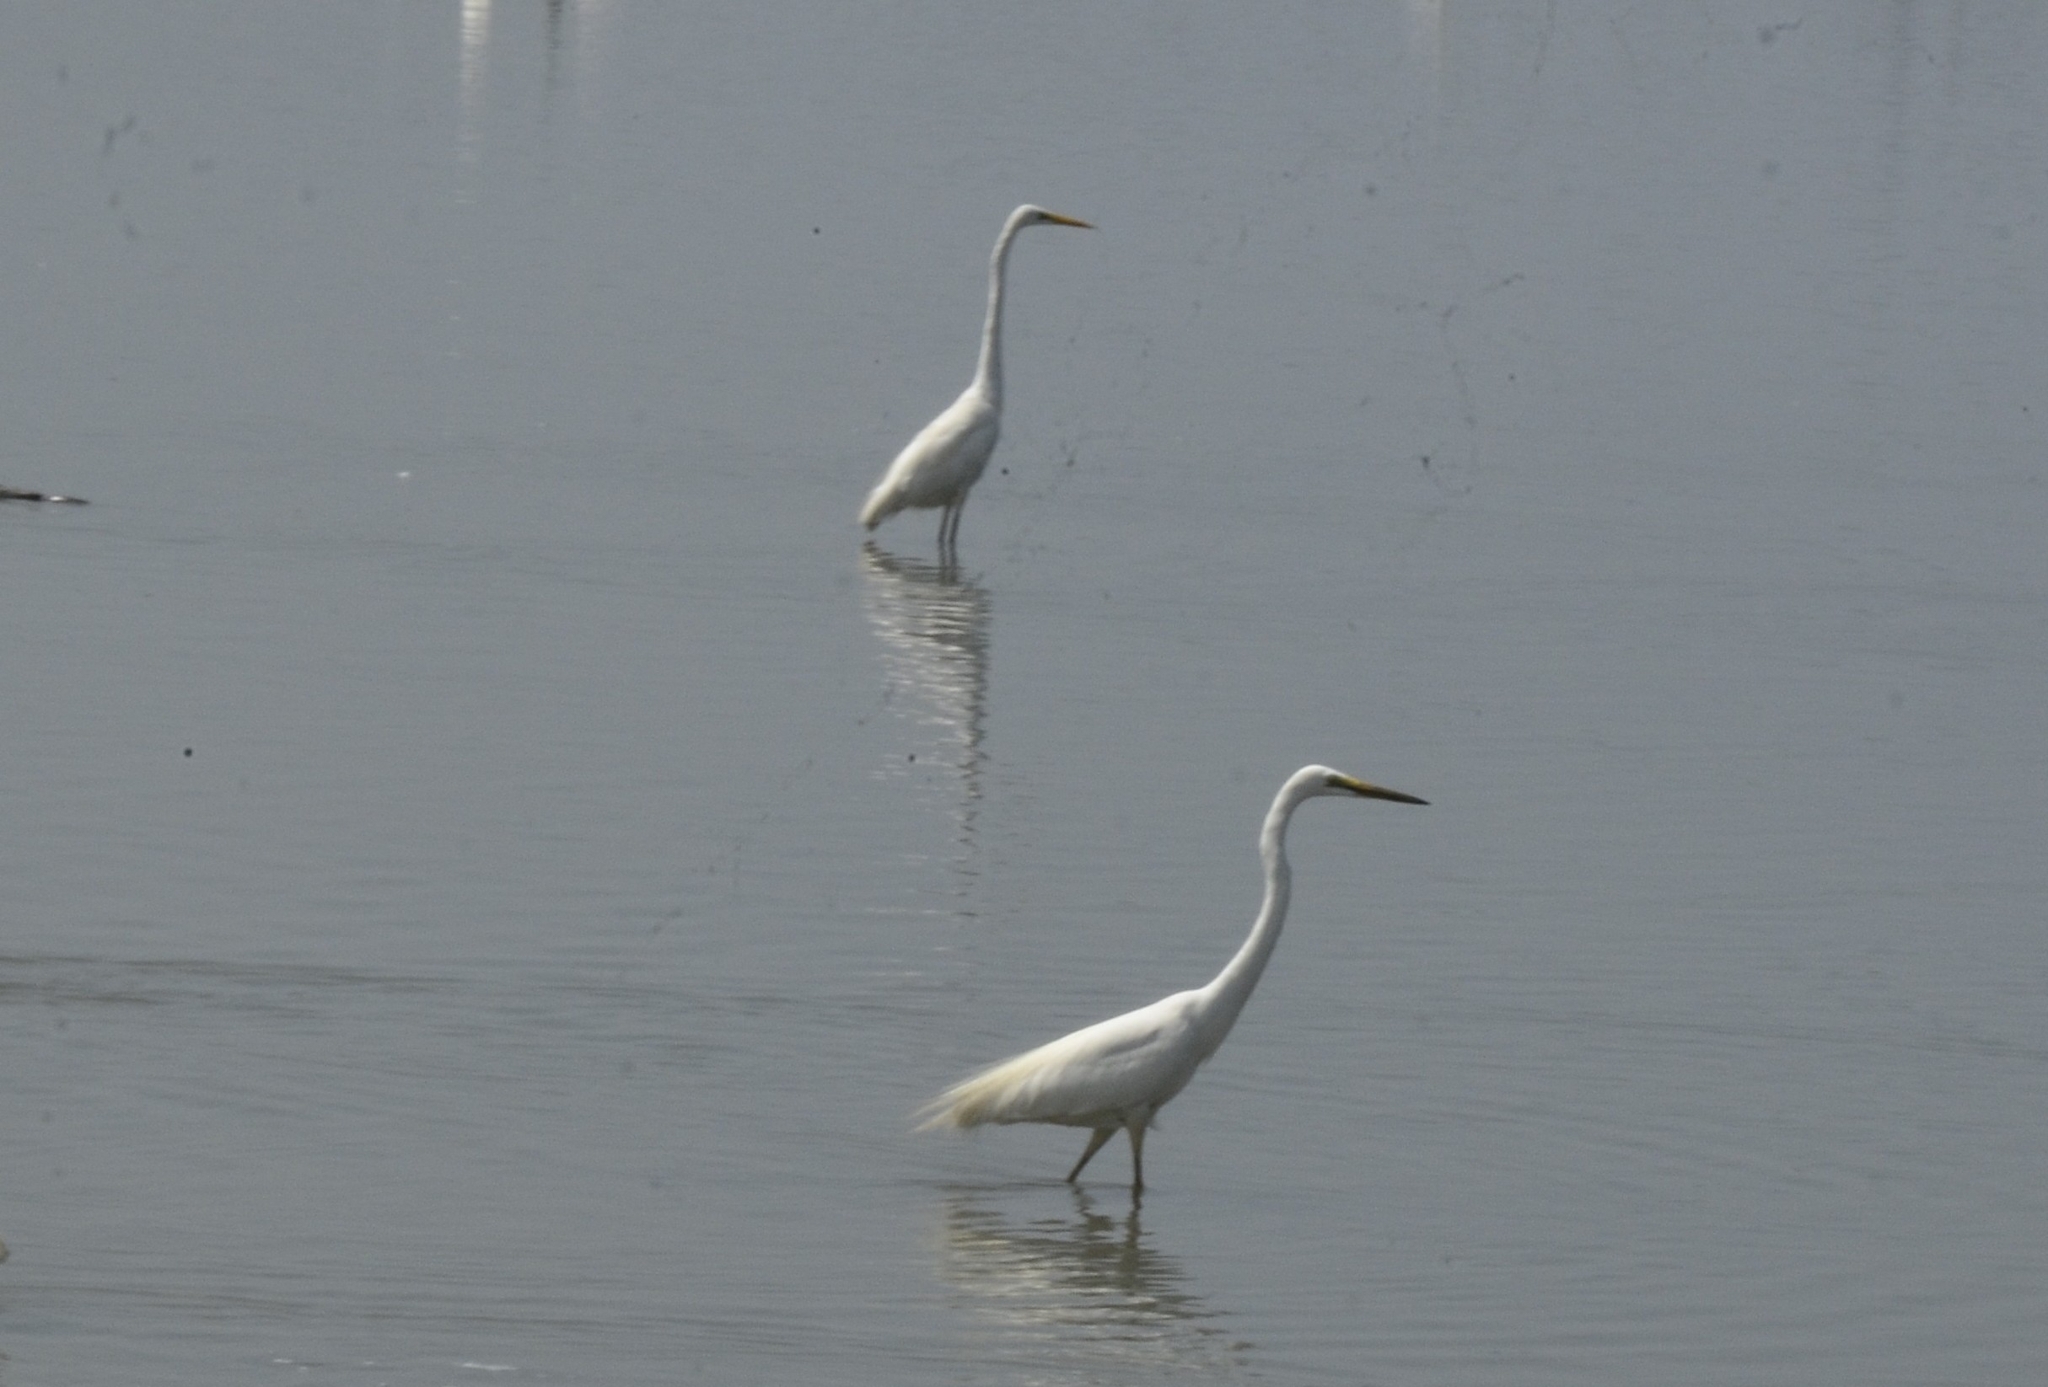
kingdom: Animalia
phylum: Chordata
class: Aves
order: Pelecaniformes
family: Ardeidae
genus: Ardea
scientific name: Ardea alba
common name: Great egret
